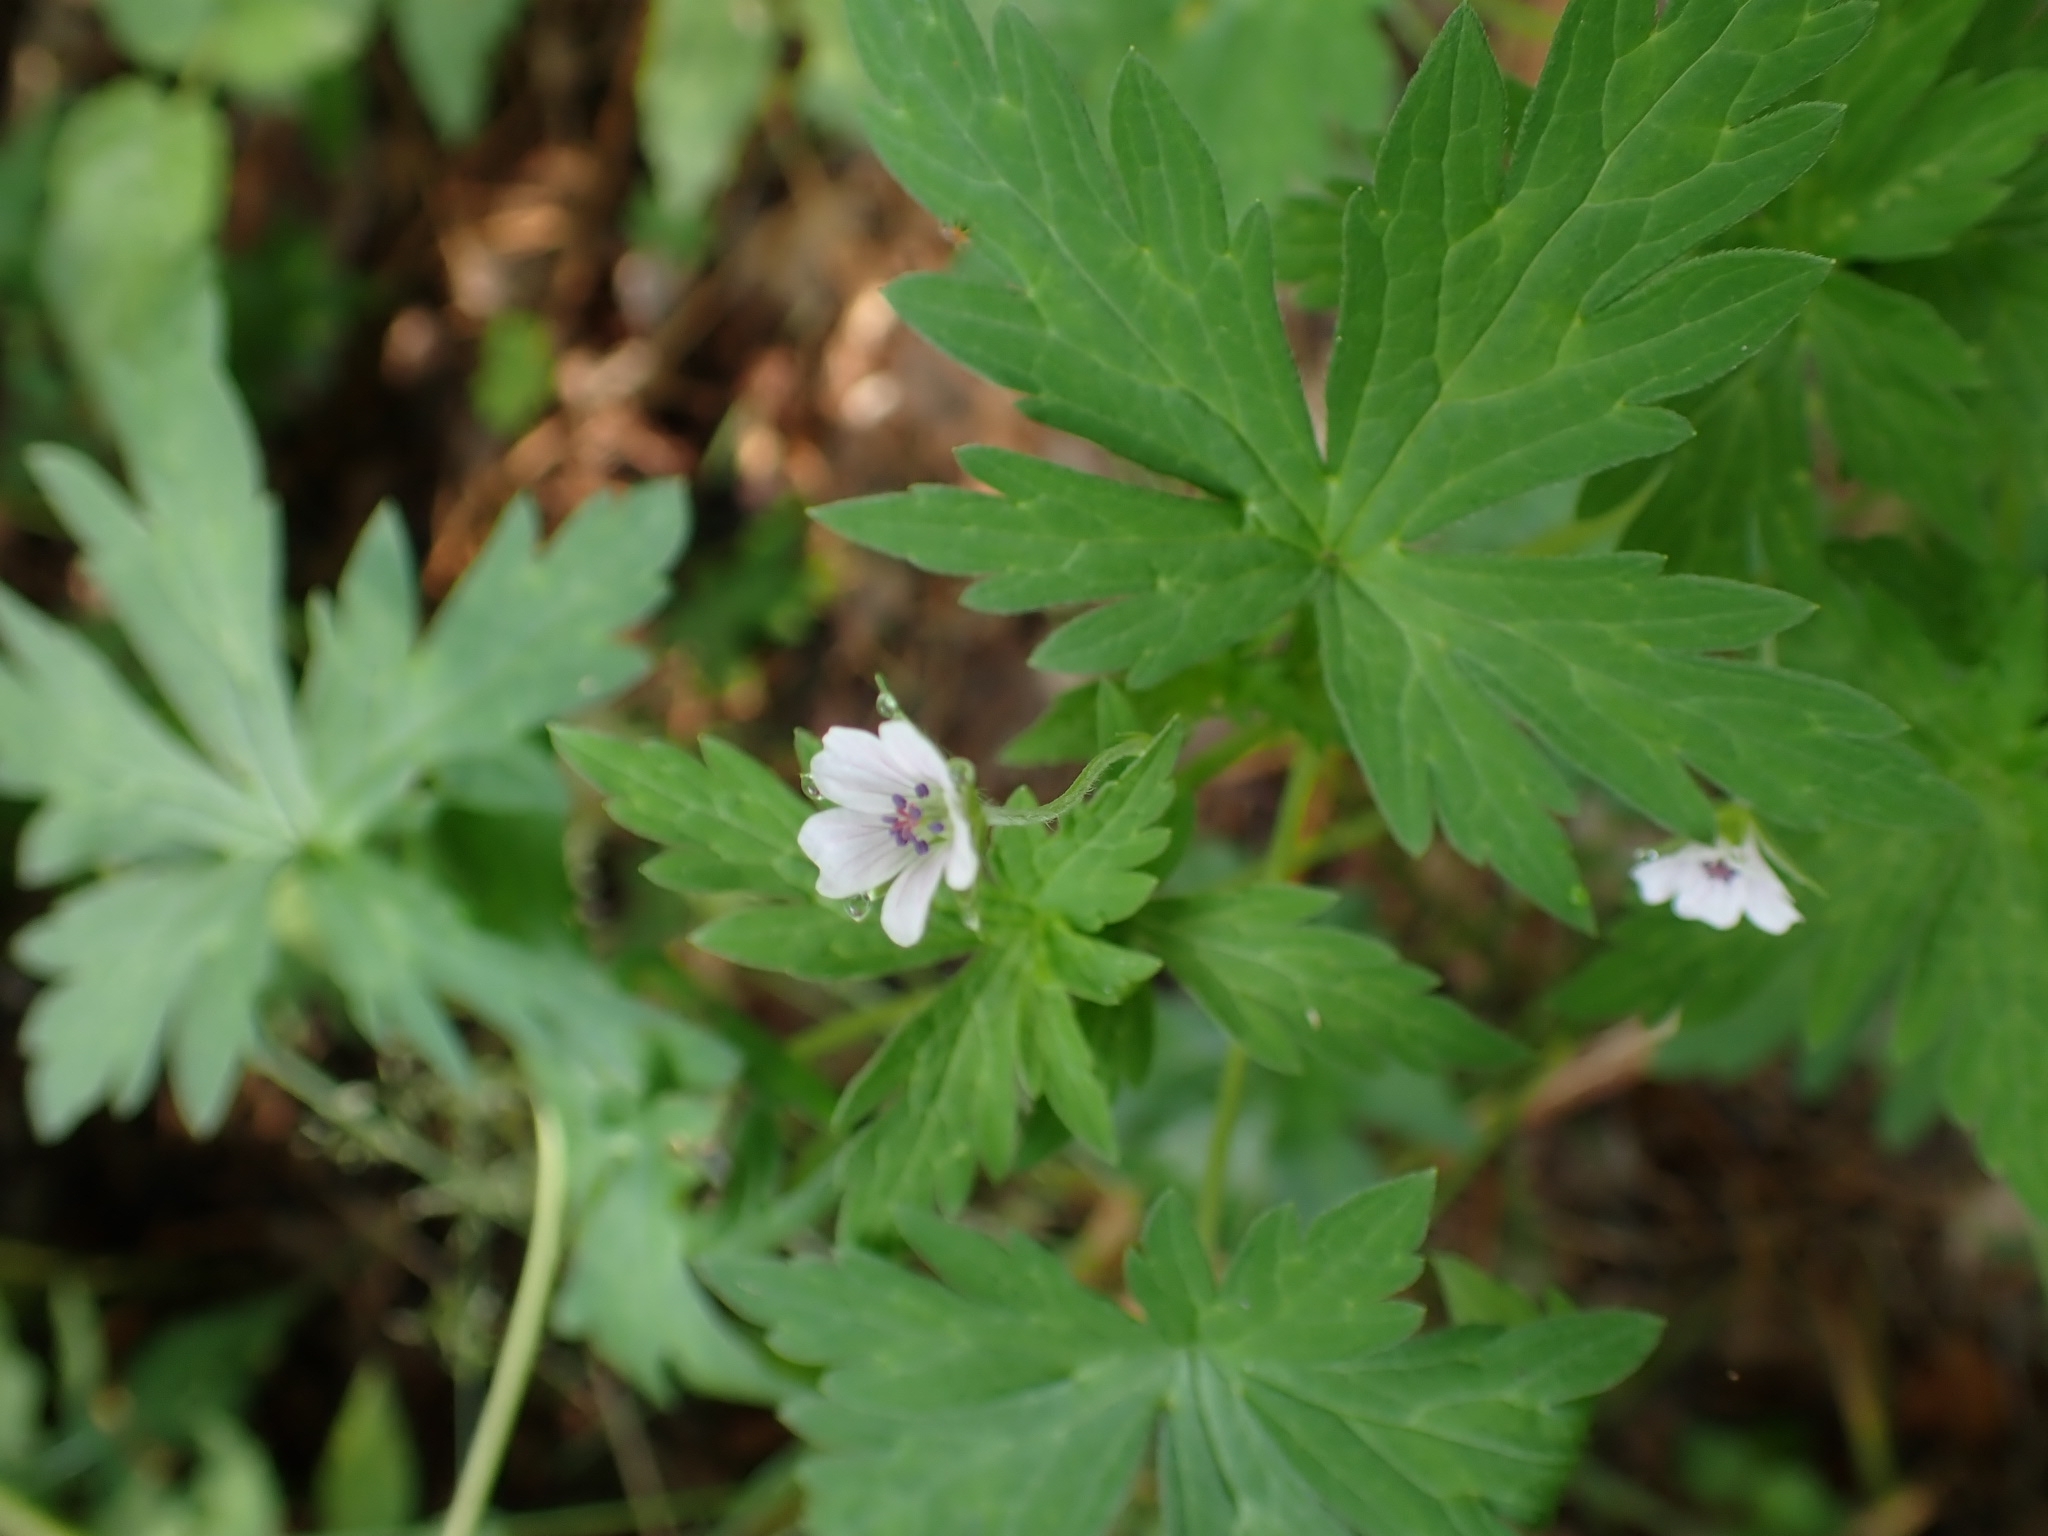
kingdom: Plantae
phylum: Tracheophyta
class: Magnoliopsida
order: Geraniales
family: Geraniaceae
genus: Geranium
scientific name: Geranium sibiricum
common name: Siberian crane's-bill
